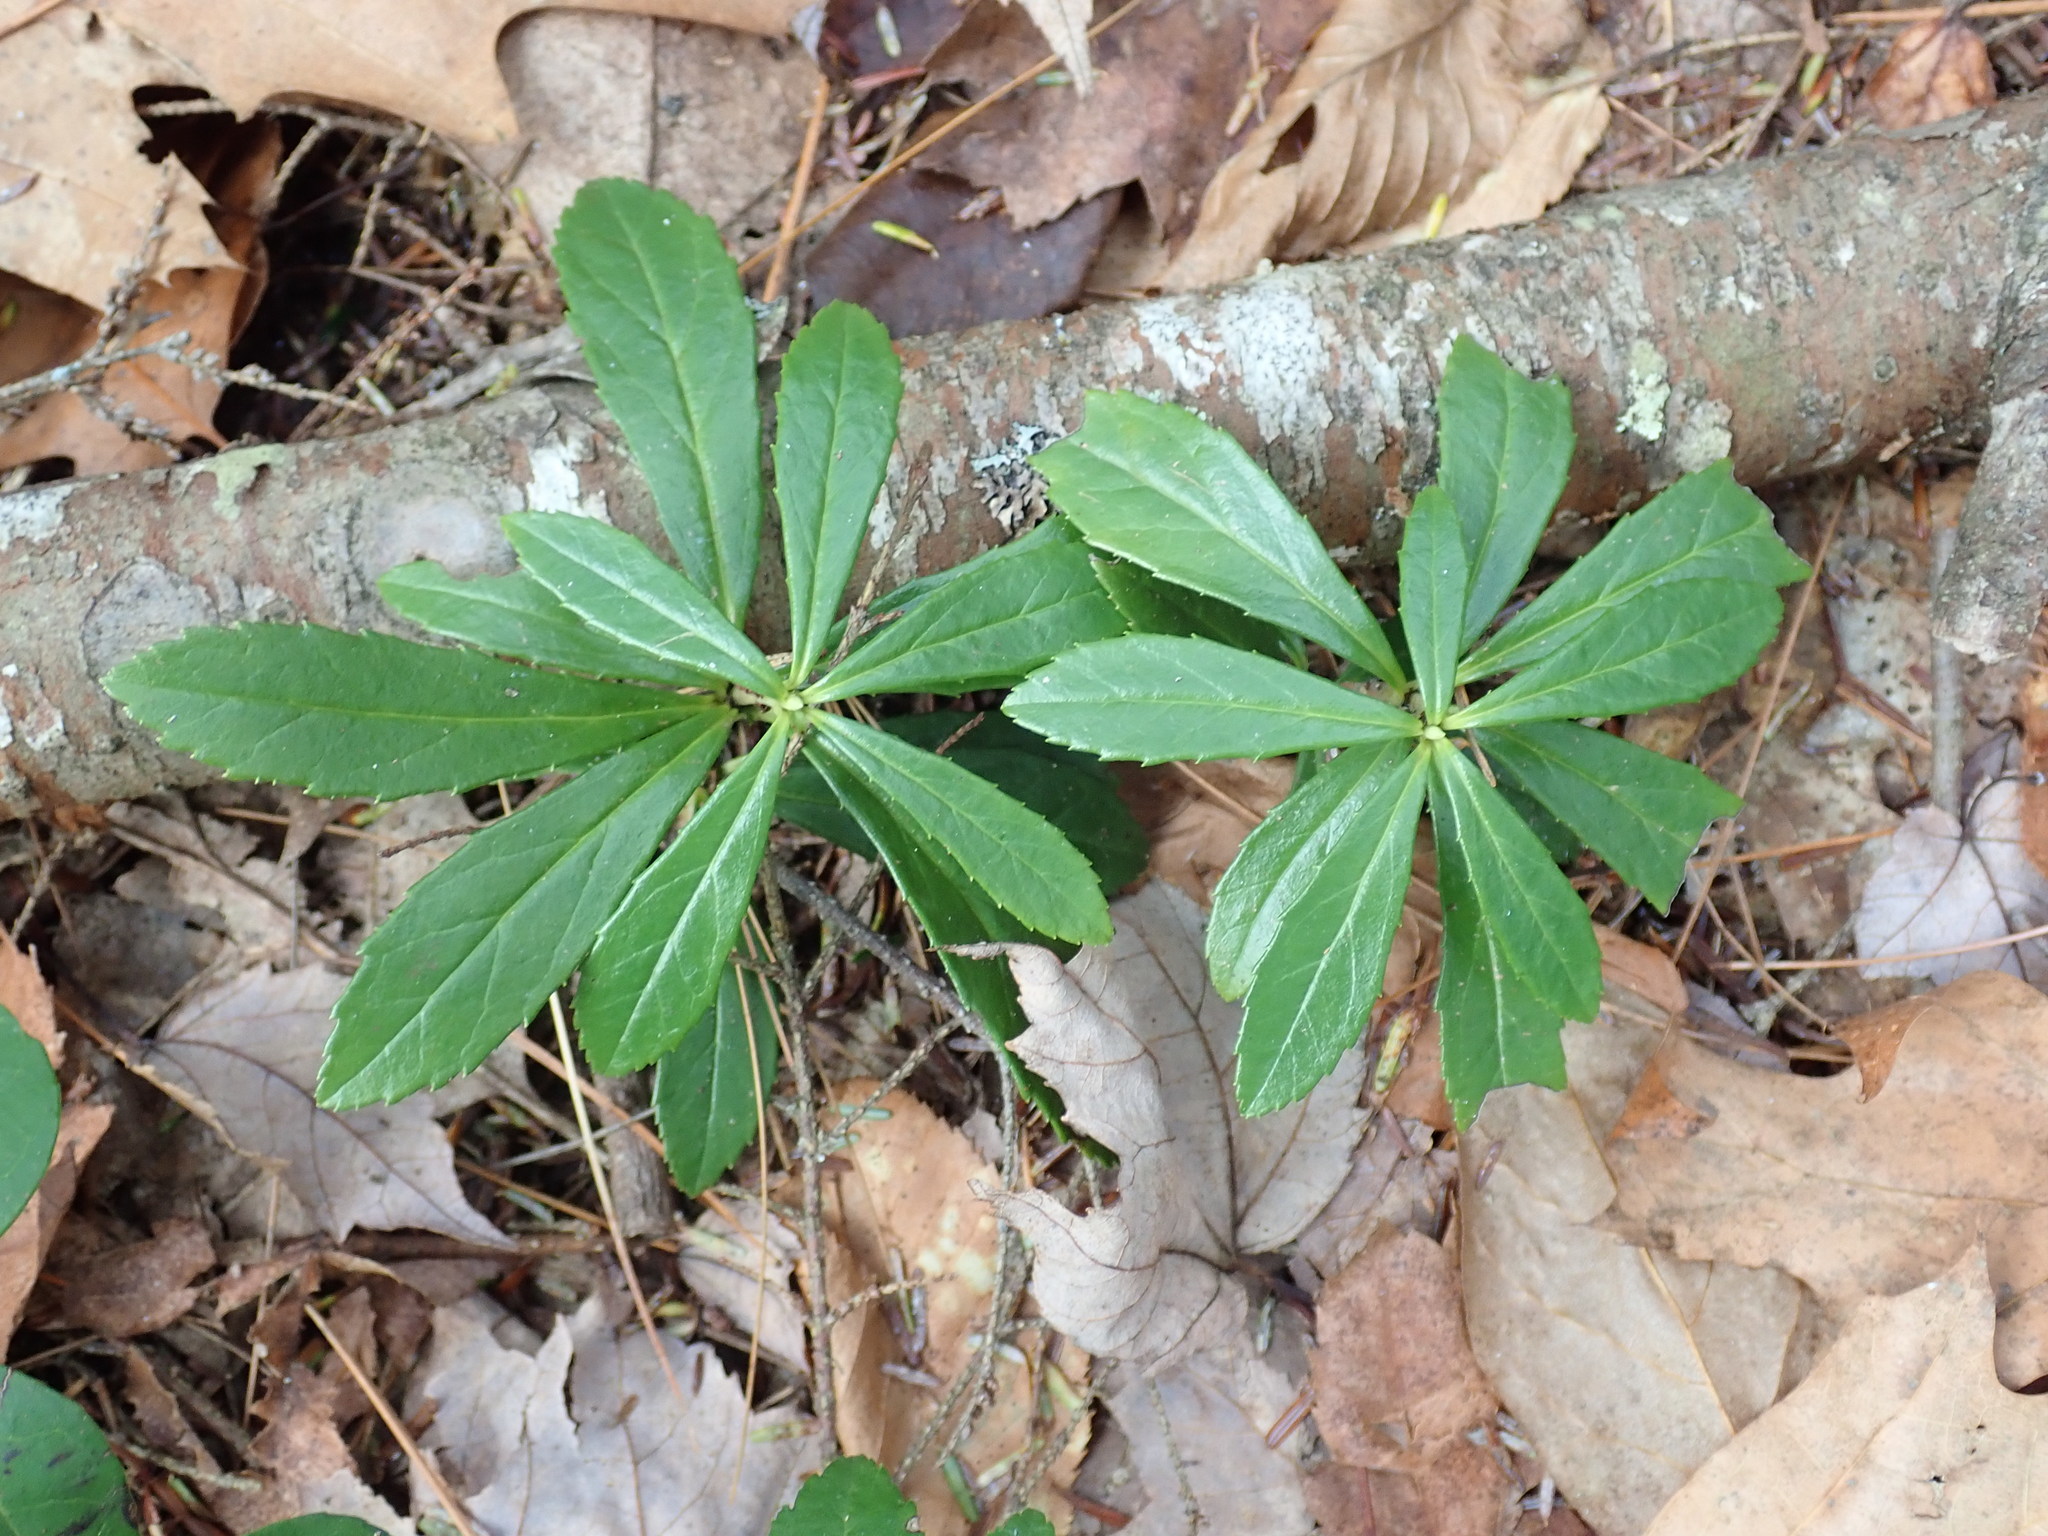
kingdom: Plantae
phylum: Tracheophyta
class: Magnoliopsida
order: Ericales
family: Ericaceae
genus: Chimaphila
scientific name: Chimaphila umbellata
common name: Pipsissewa
